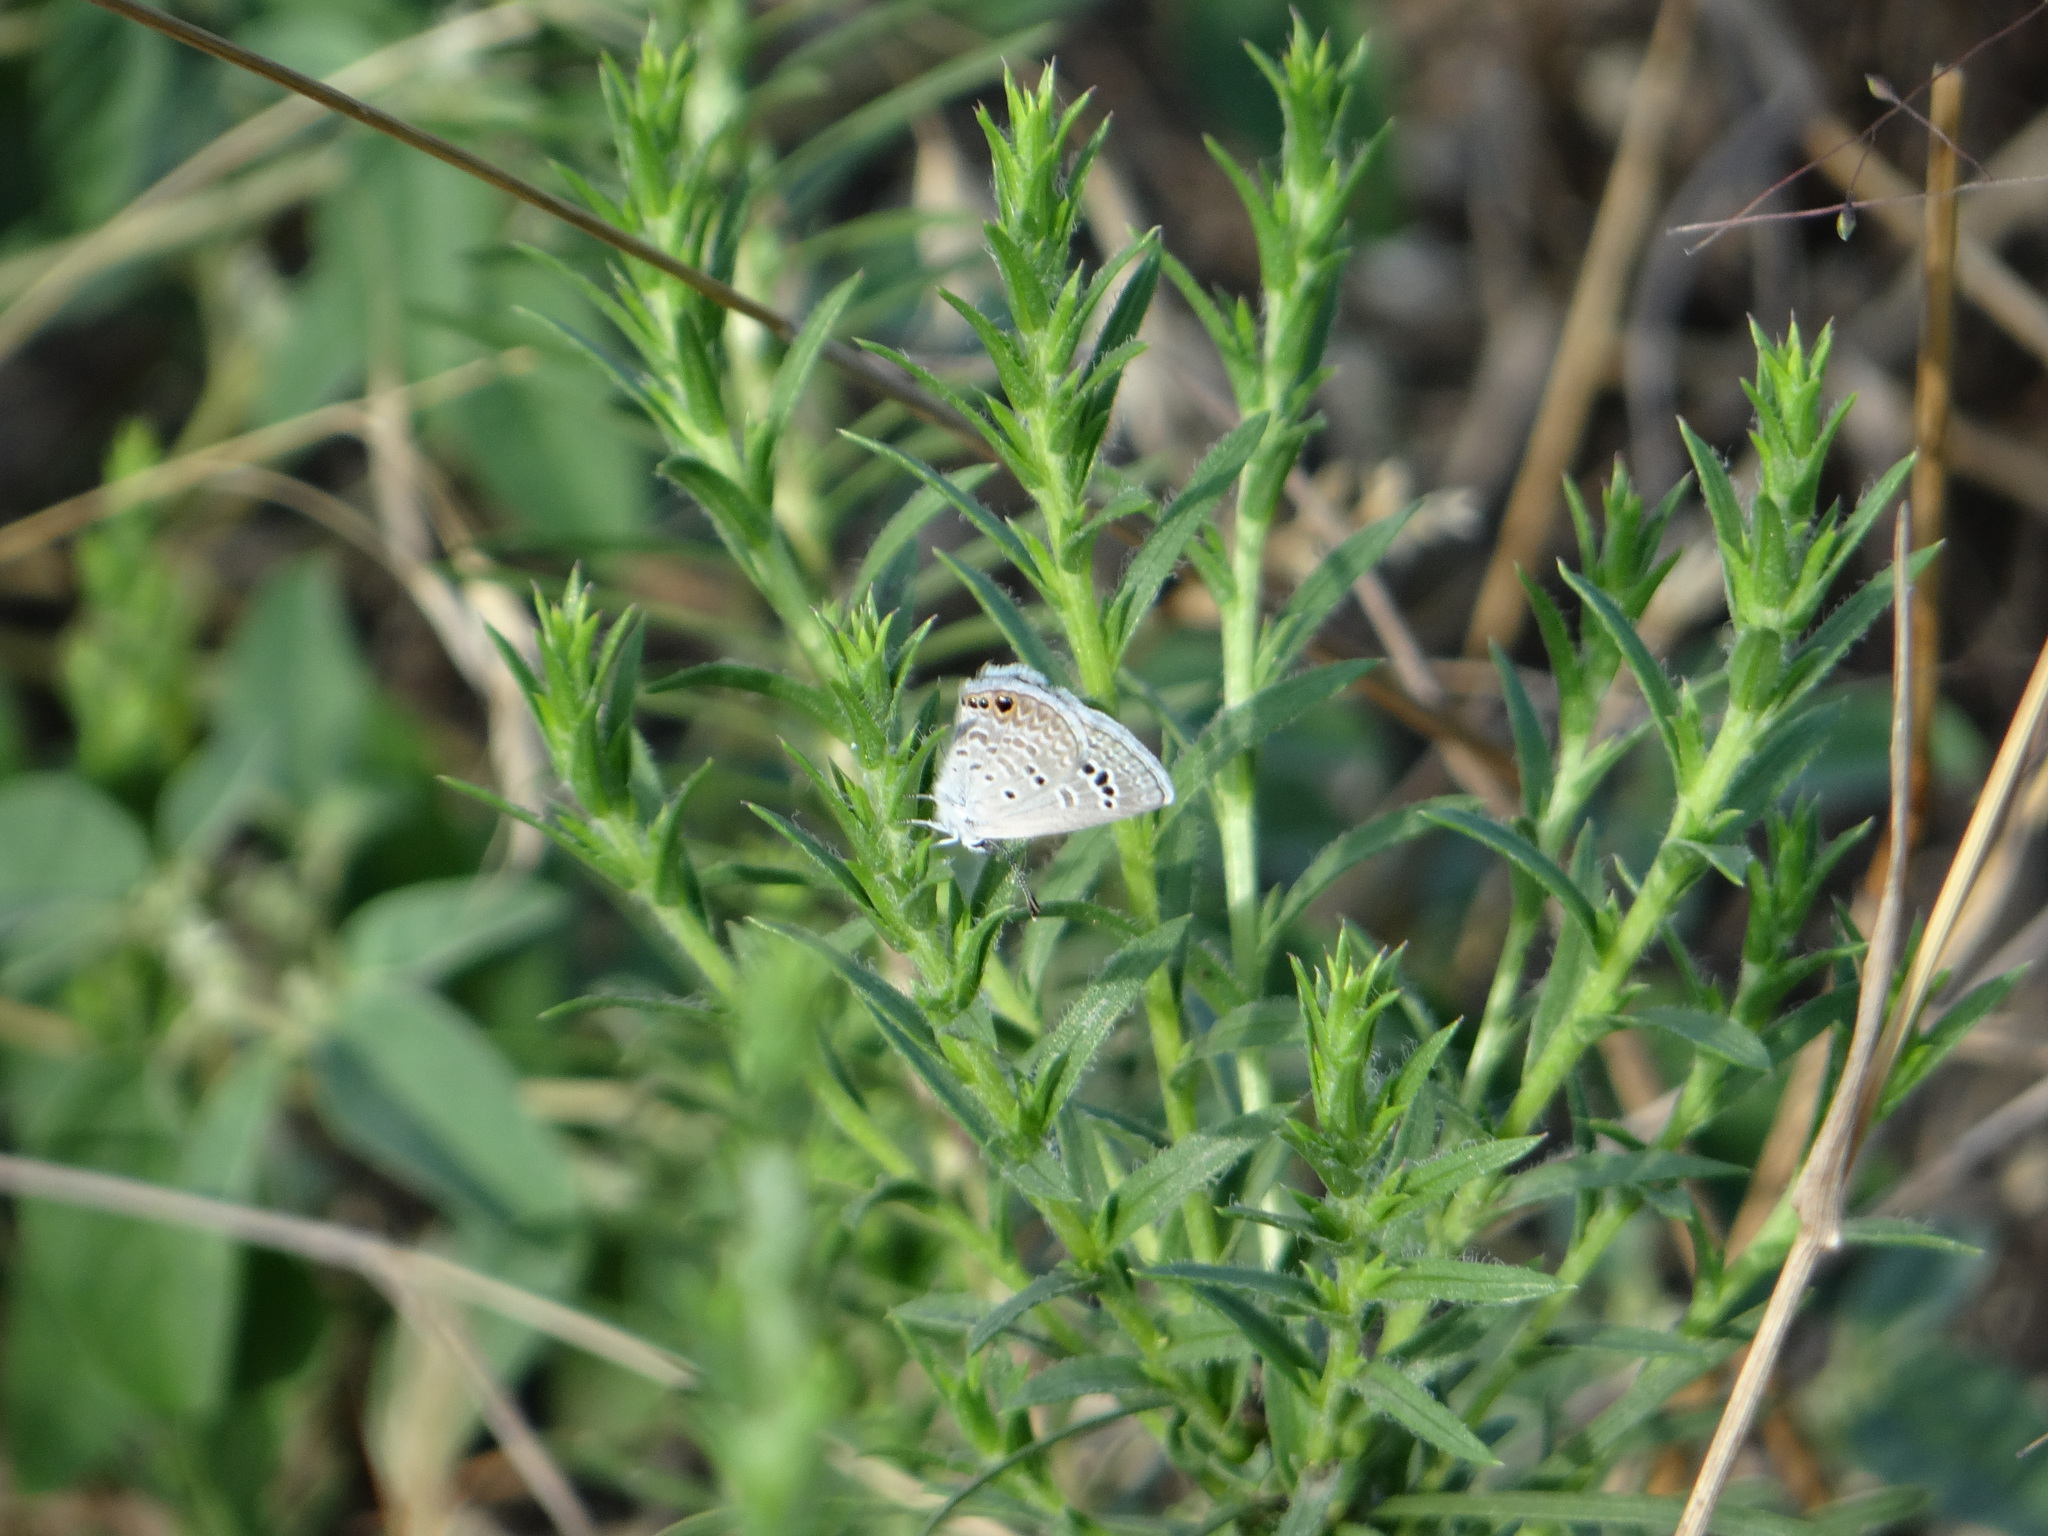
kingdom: Animalia
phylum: Arthropoda
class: Insecta
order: Lepidoptera
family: Lycaenidae
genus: Echinargus
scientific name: Echinargus isola
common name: Reakirt's blue
